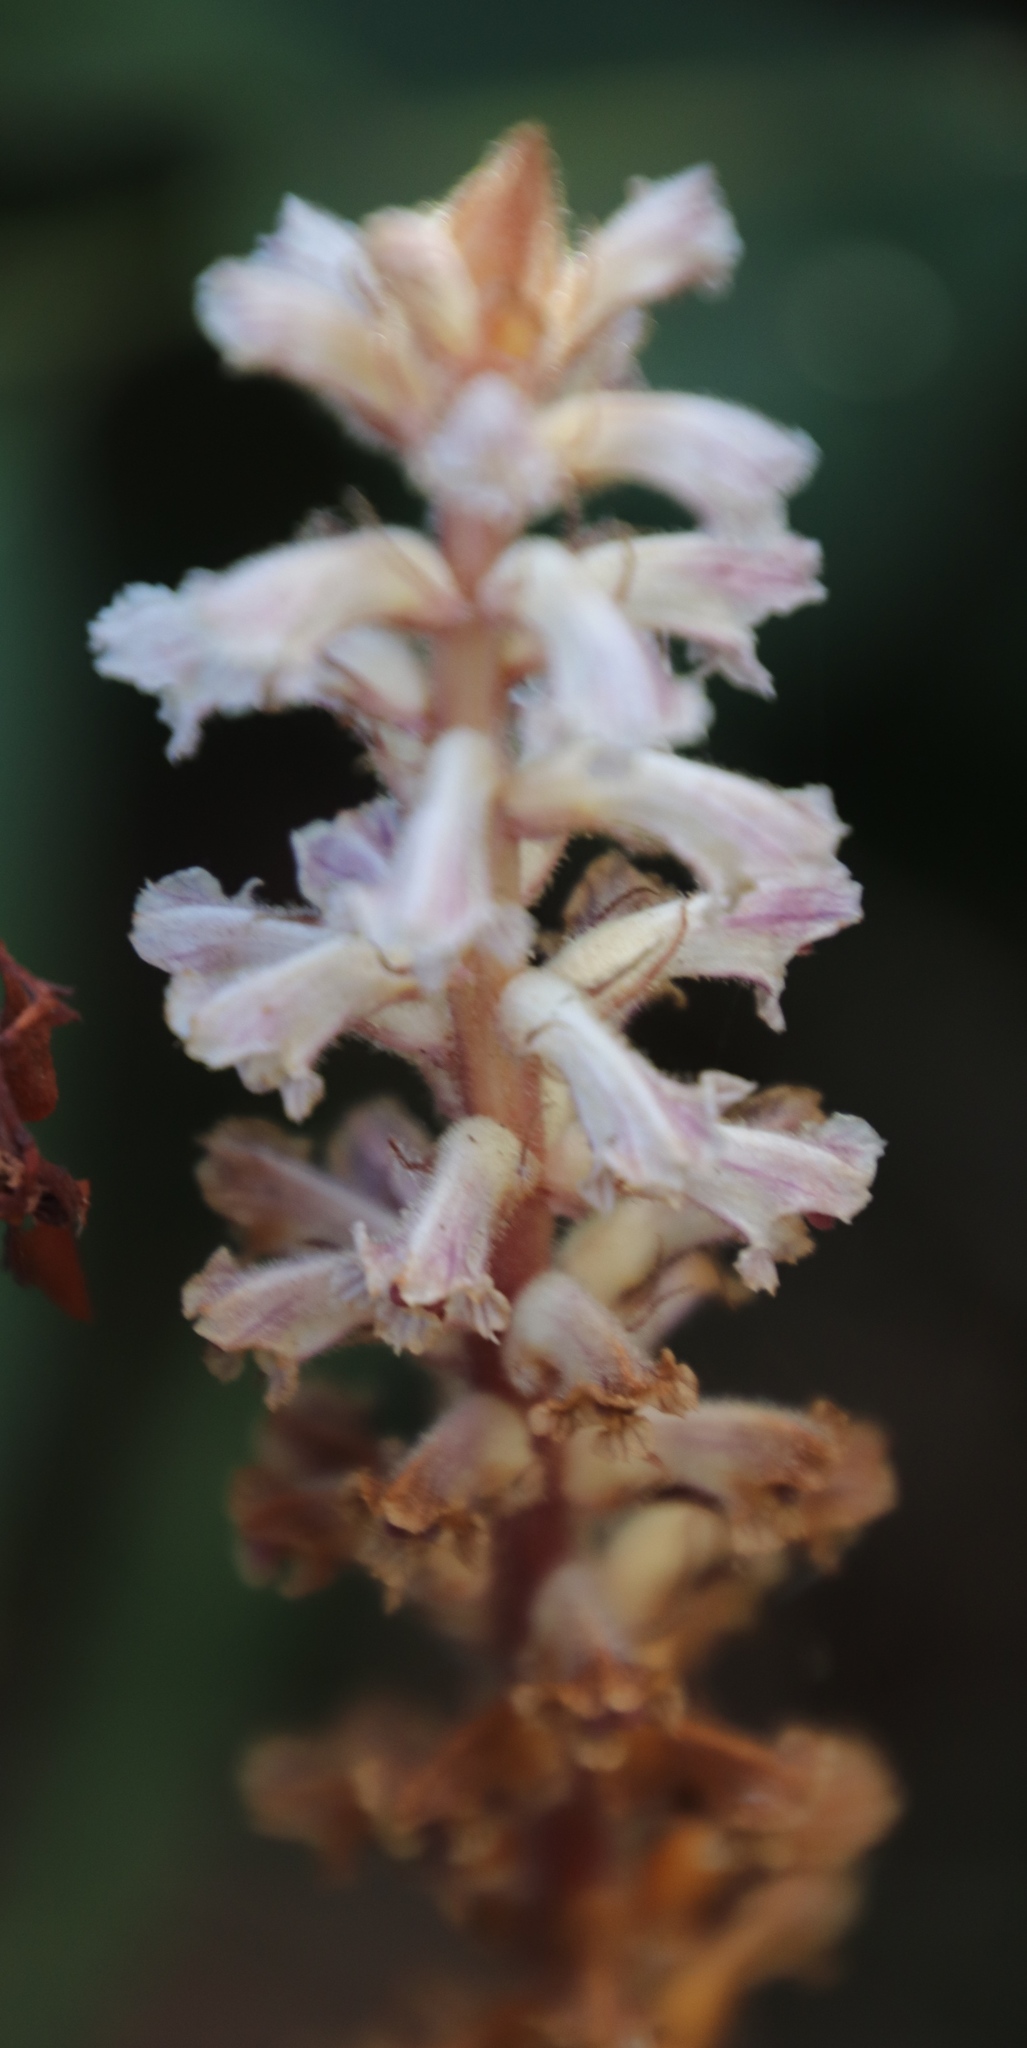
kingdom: Plantae
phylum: Tracheophyta
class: Magnoliopsida
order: Lamiales
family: Orobanchaceae
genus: Orobanche
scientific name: Orobanche minor
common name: Common broomrape
